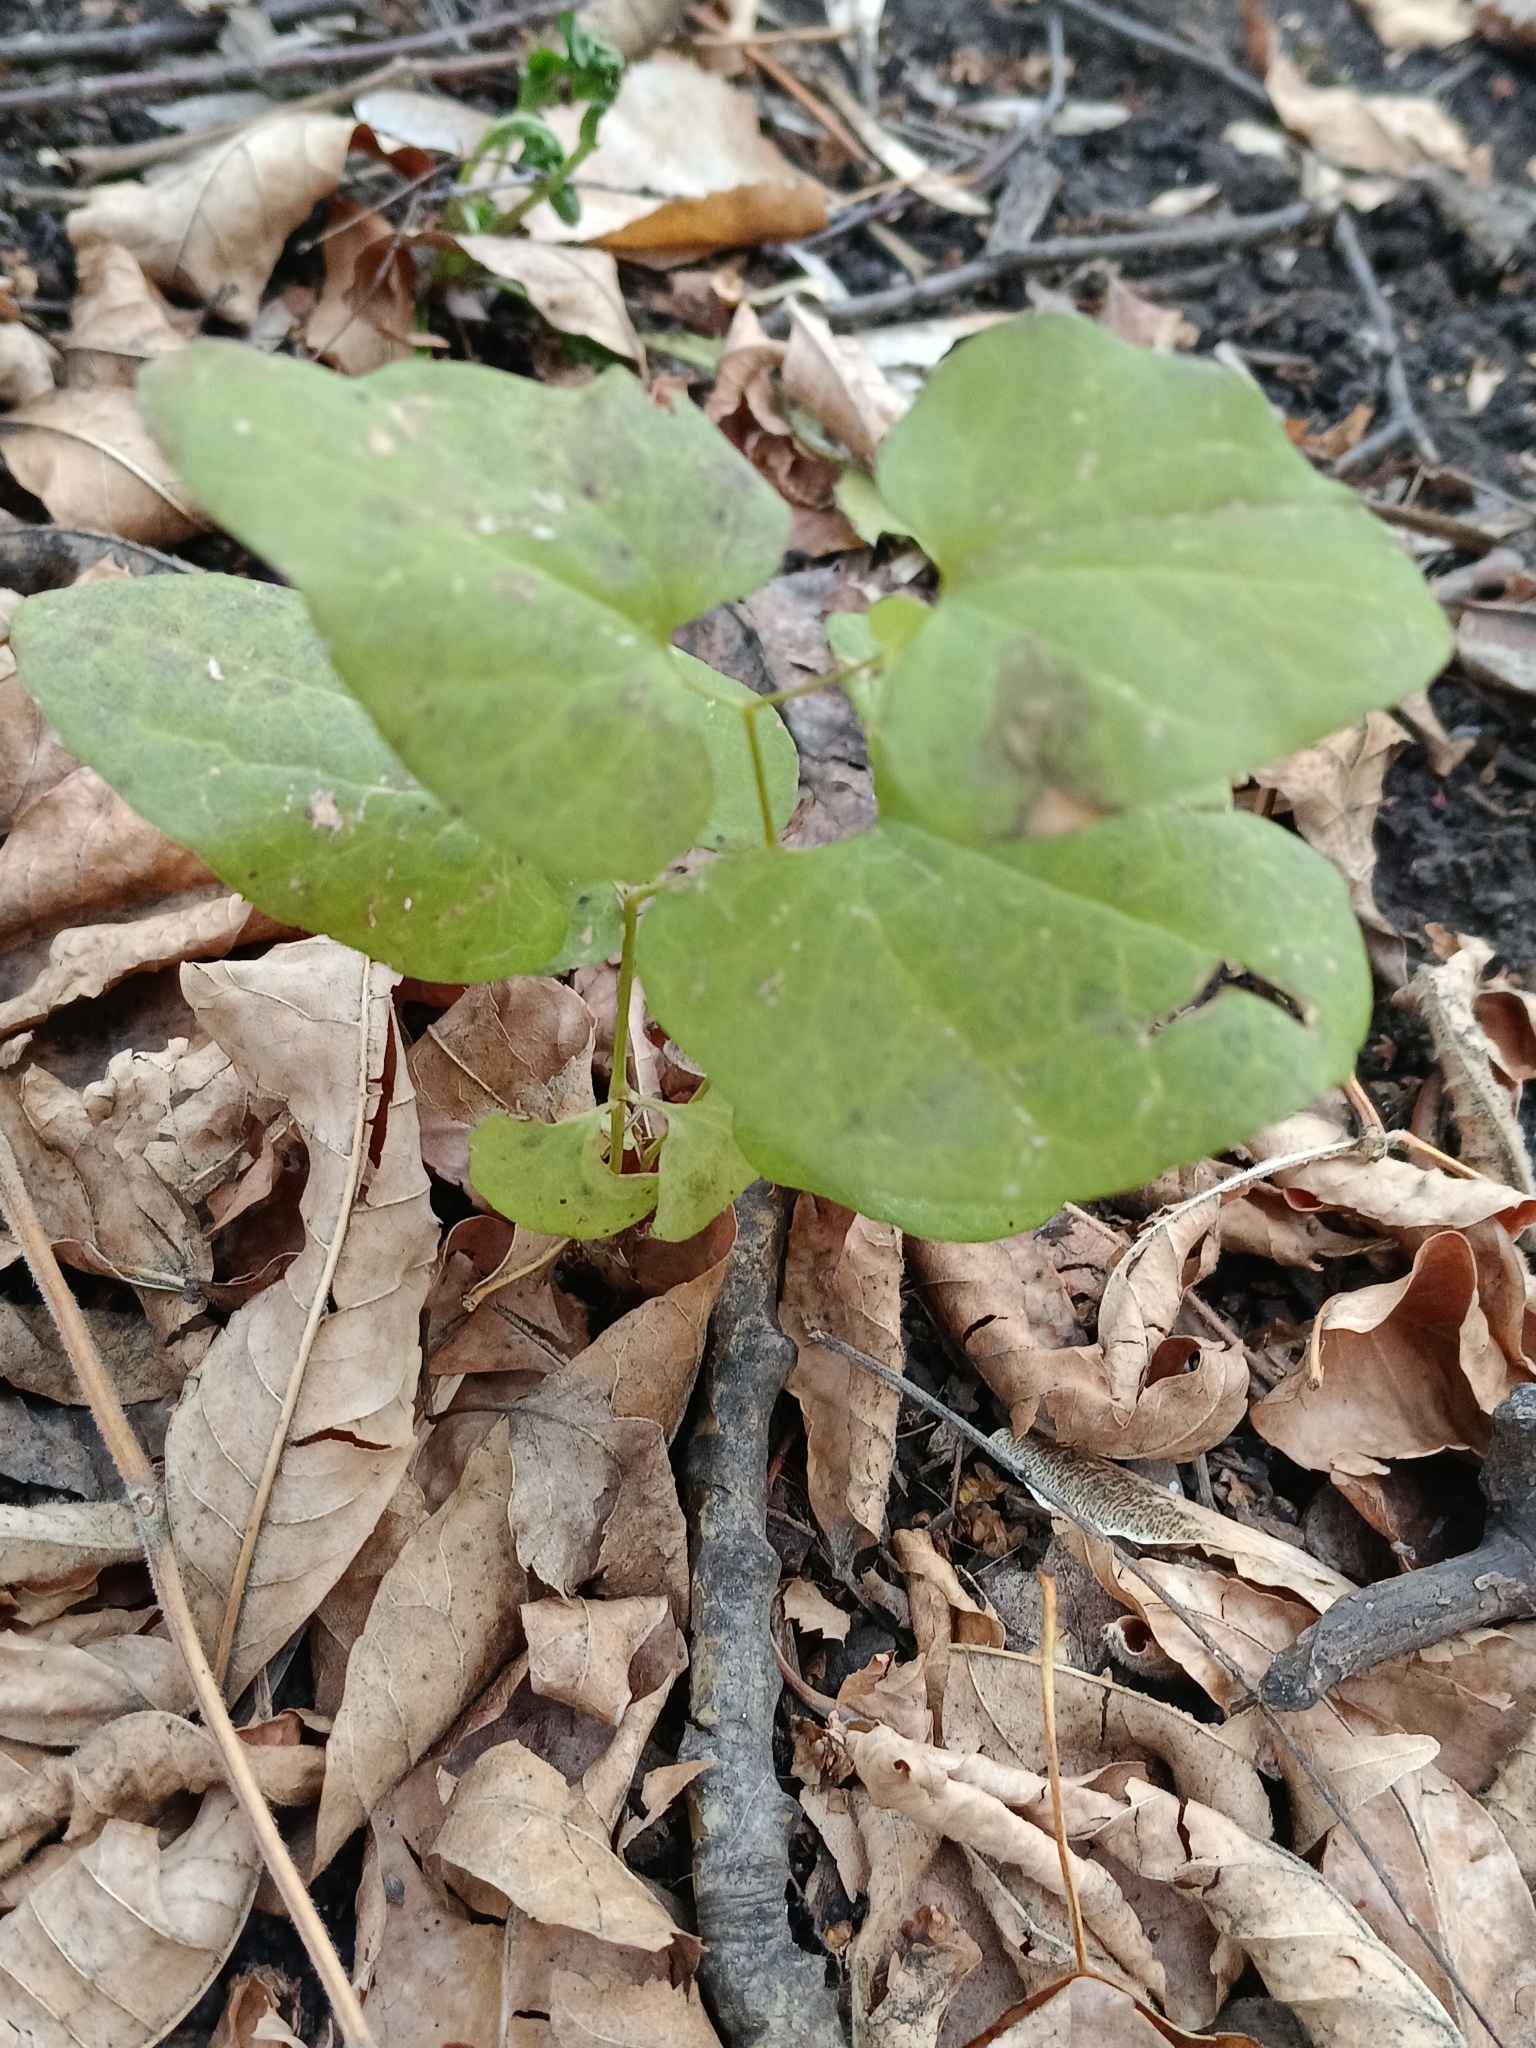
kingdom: Plantae
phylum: Tracheophyta
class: Magnoliopsida
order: Piperales
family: Aristolochiaceae
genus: Aristolochia
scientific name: Aristolochia clematitis
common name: Birthwort
